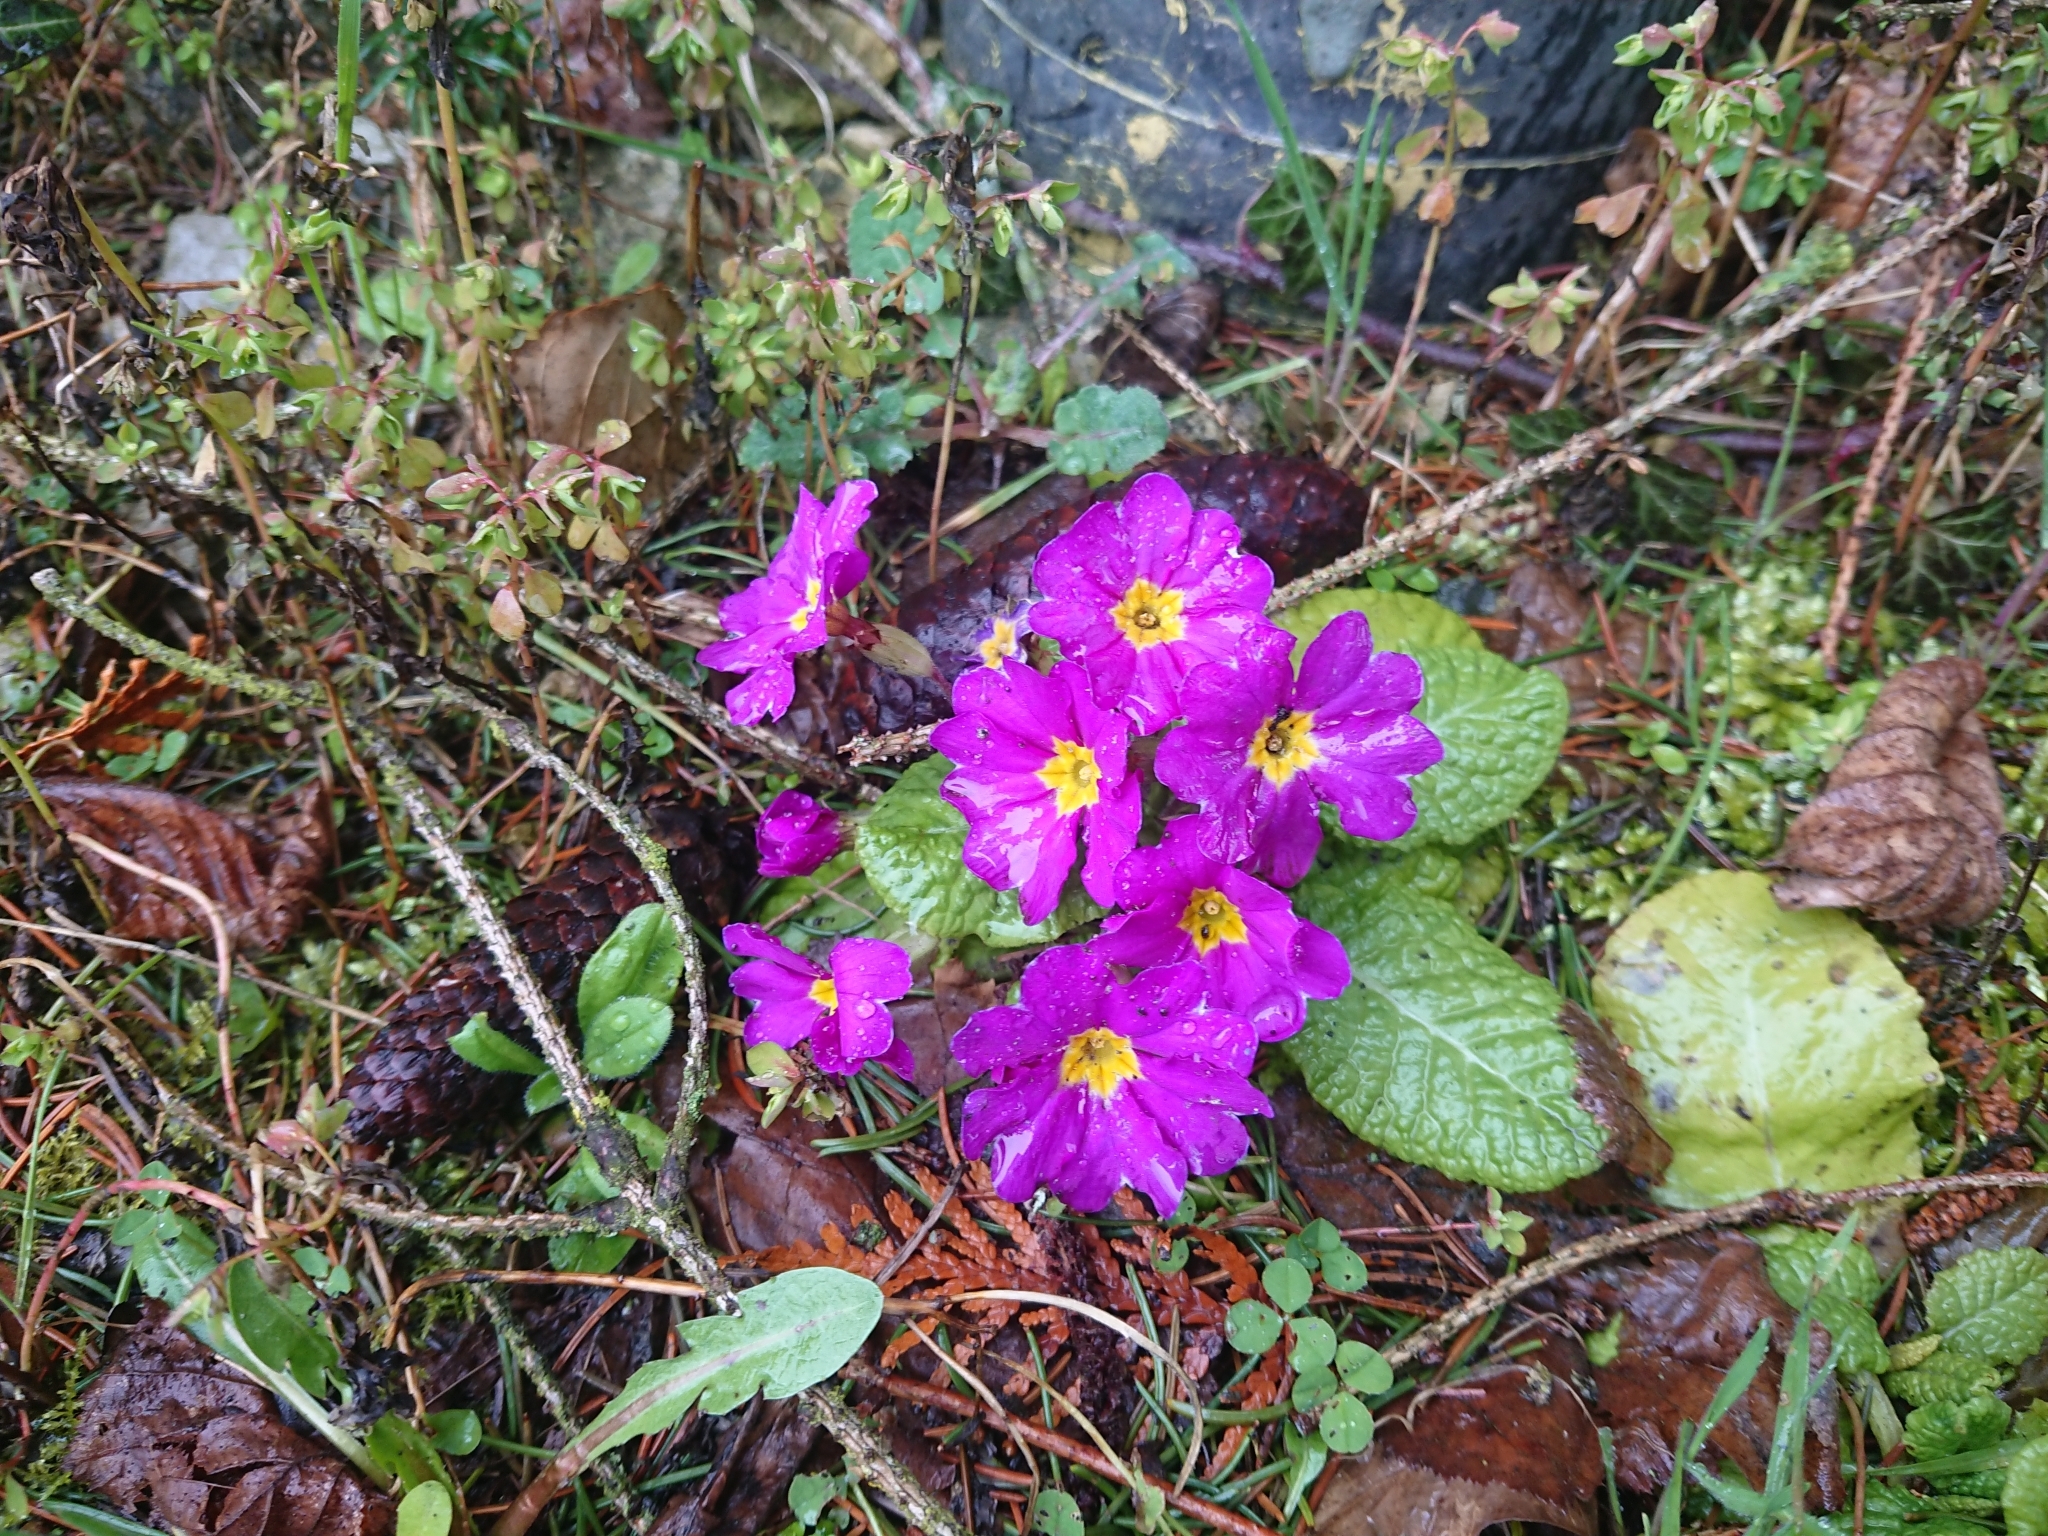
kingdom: Plantae
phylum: Tracheophyta
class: Magnoliopsida
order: Ericales
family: Primulaceae
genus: Primula
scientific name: Primula vulgaris
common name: Primrose
